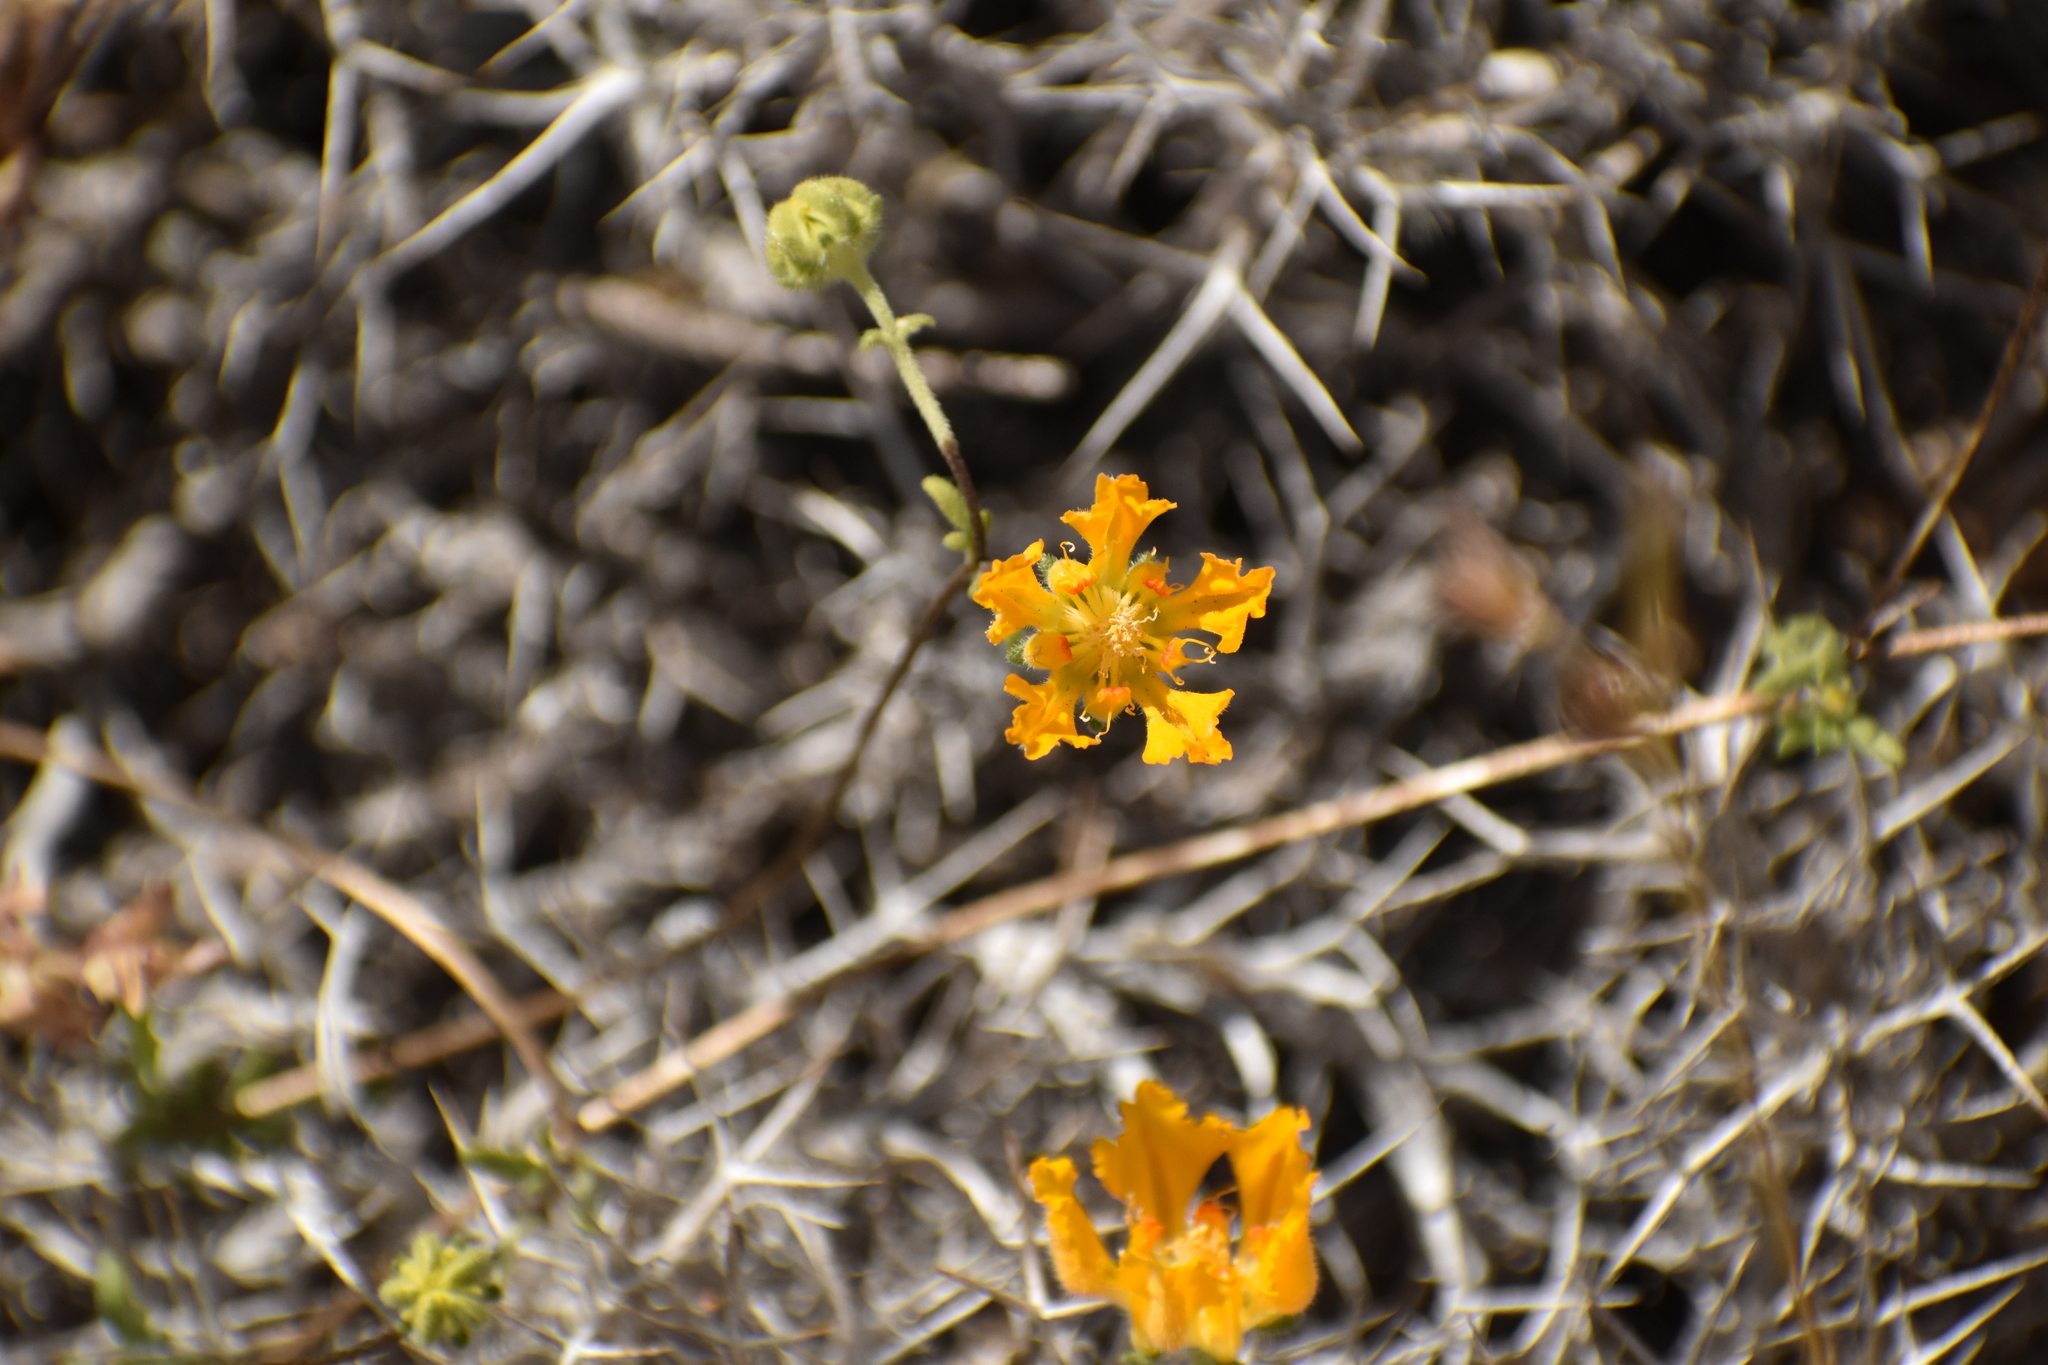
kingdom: Plantae
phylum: Tracheophyta
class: Magnoliopsida
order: Cornales
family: Loasaceae
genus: Pinnasa
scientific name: Pinnasa bergii
